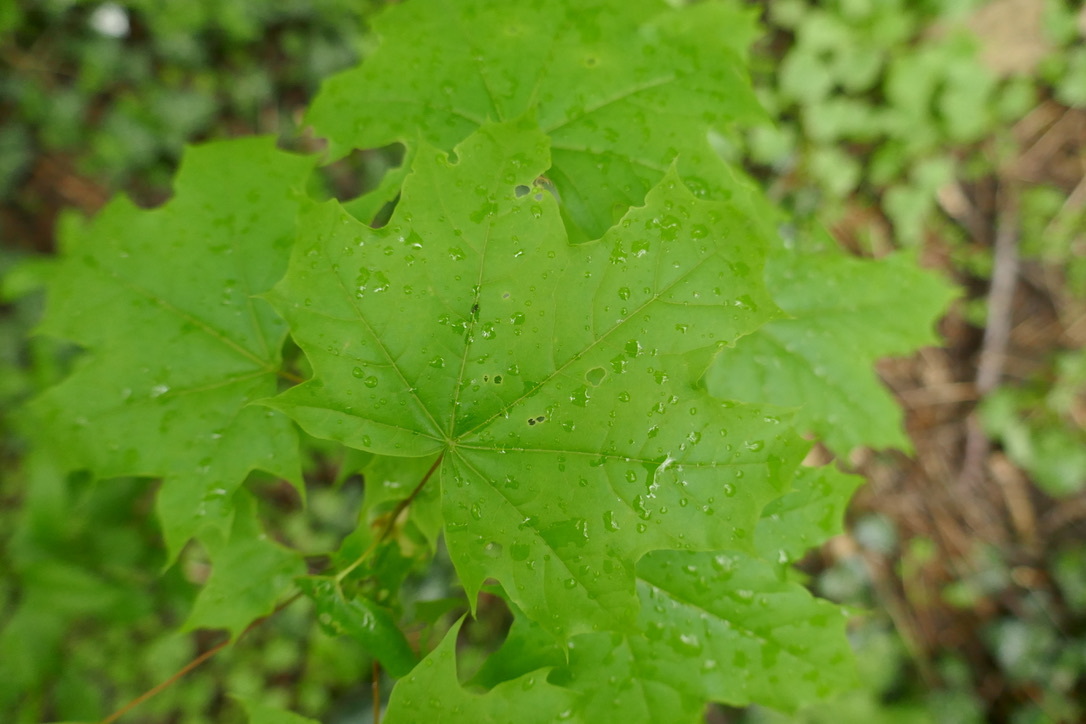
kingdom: Plantae
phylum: Tracheophyta
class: Magnoliopsida
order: Sapindales
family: Sapindaceae
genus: Acer
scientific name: Acer platanoides
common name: Norway maple
